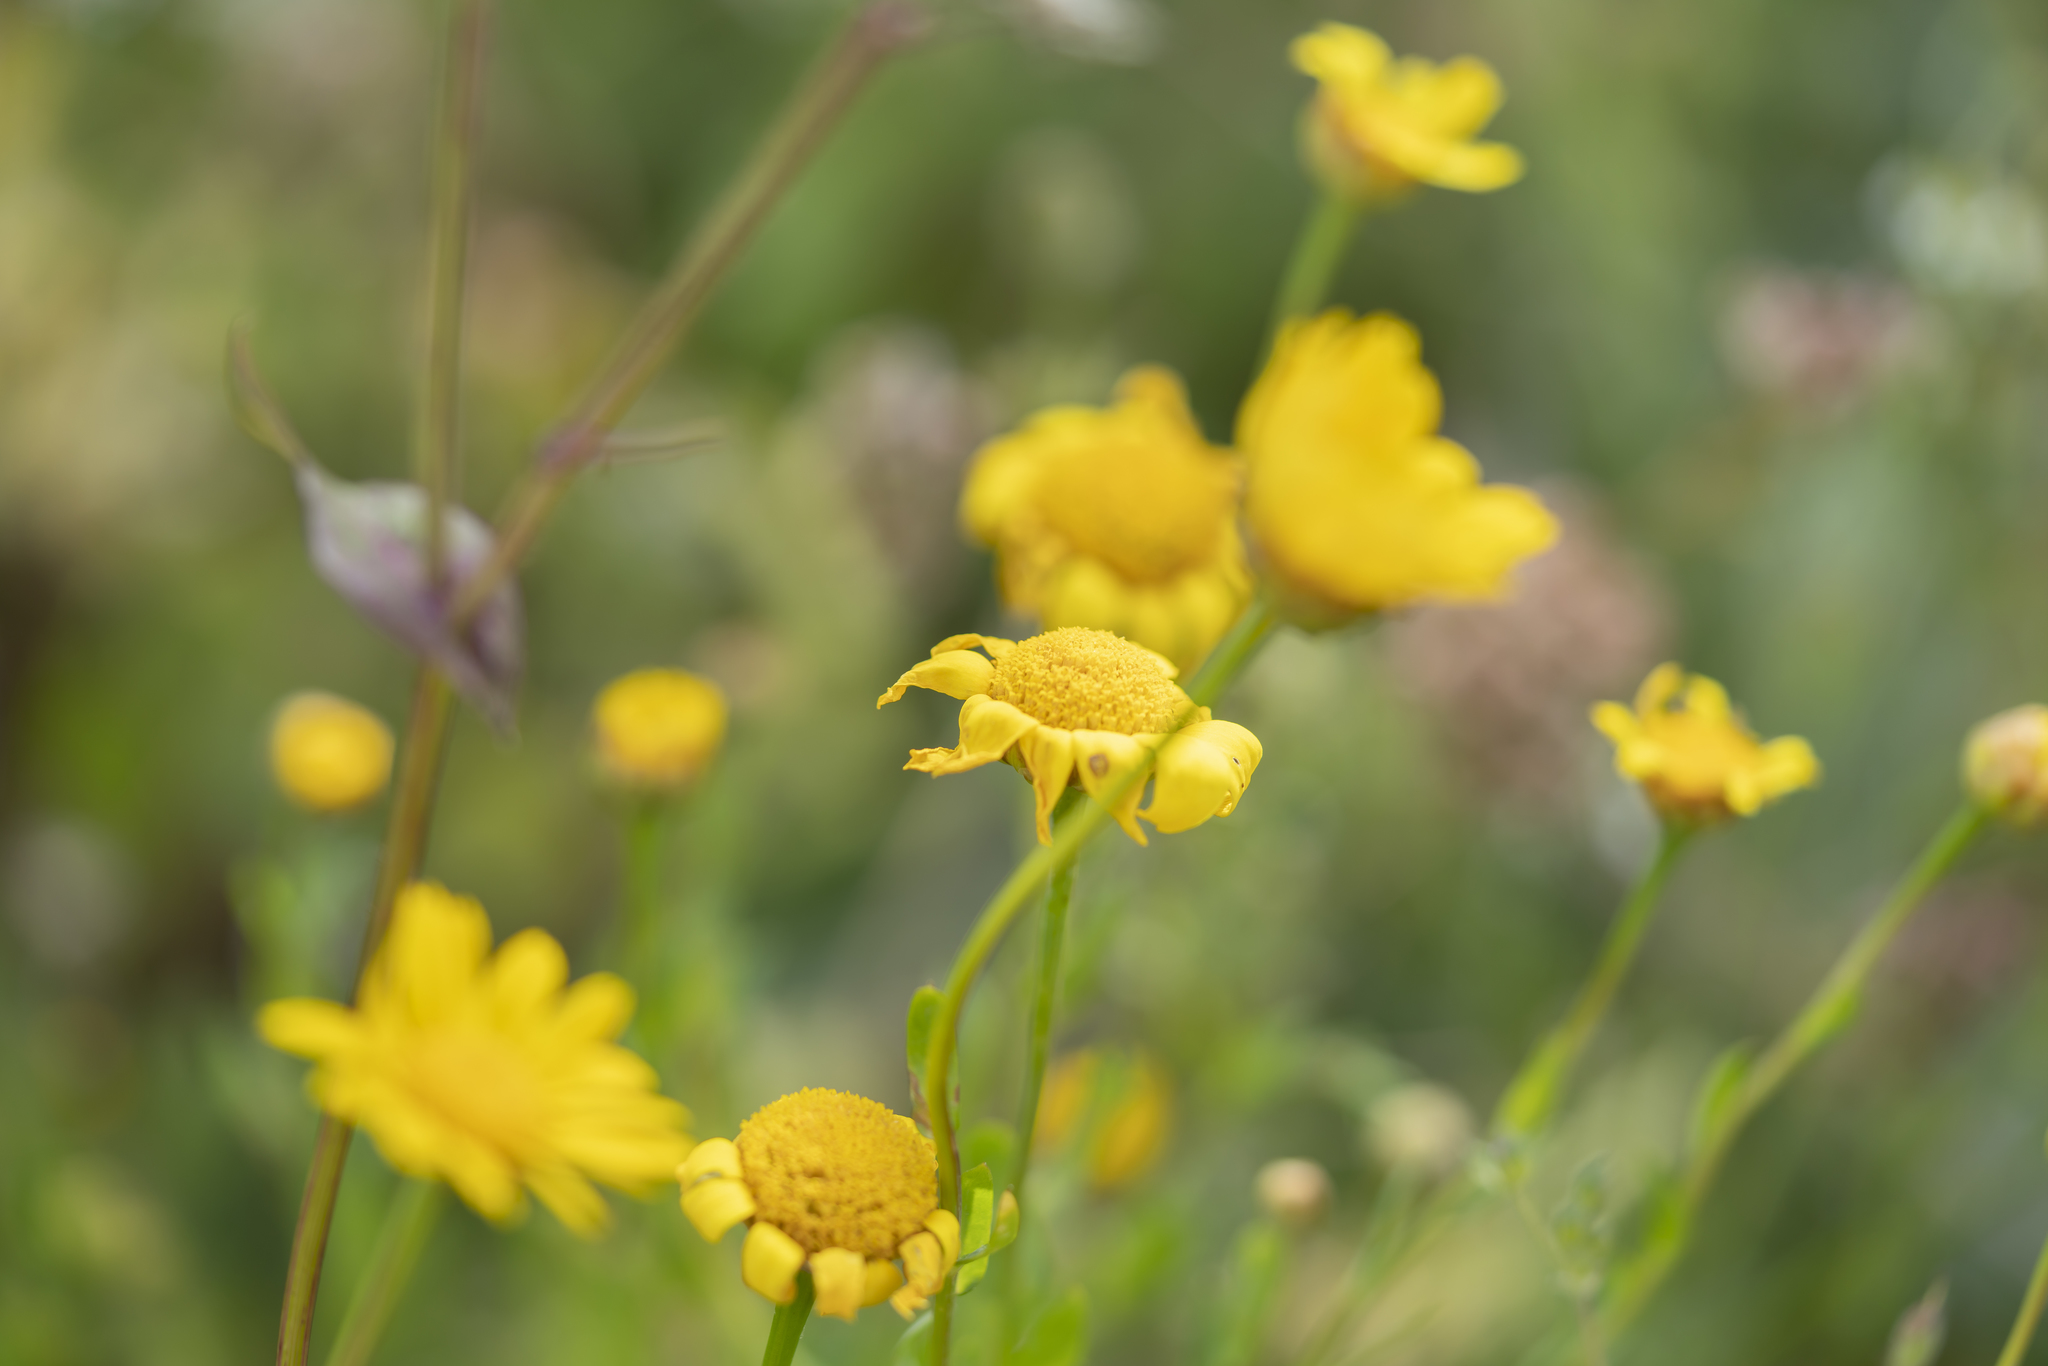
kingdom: Plantae
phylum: Tracheophyta
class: Magnoliopsida
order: Asterales
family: Asteraceae
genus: Glebionis
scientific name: Glebionis segetum
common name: Corndaisy
